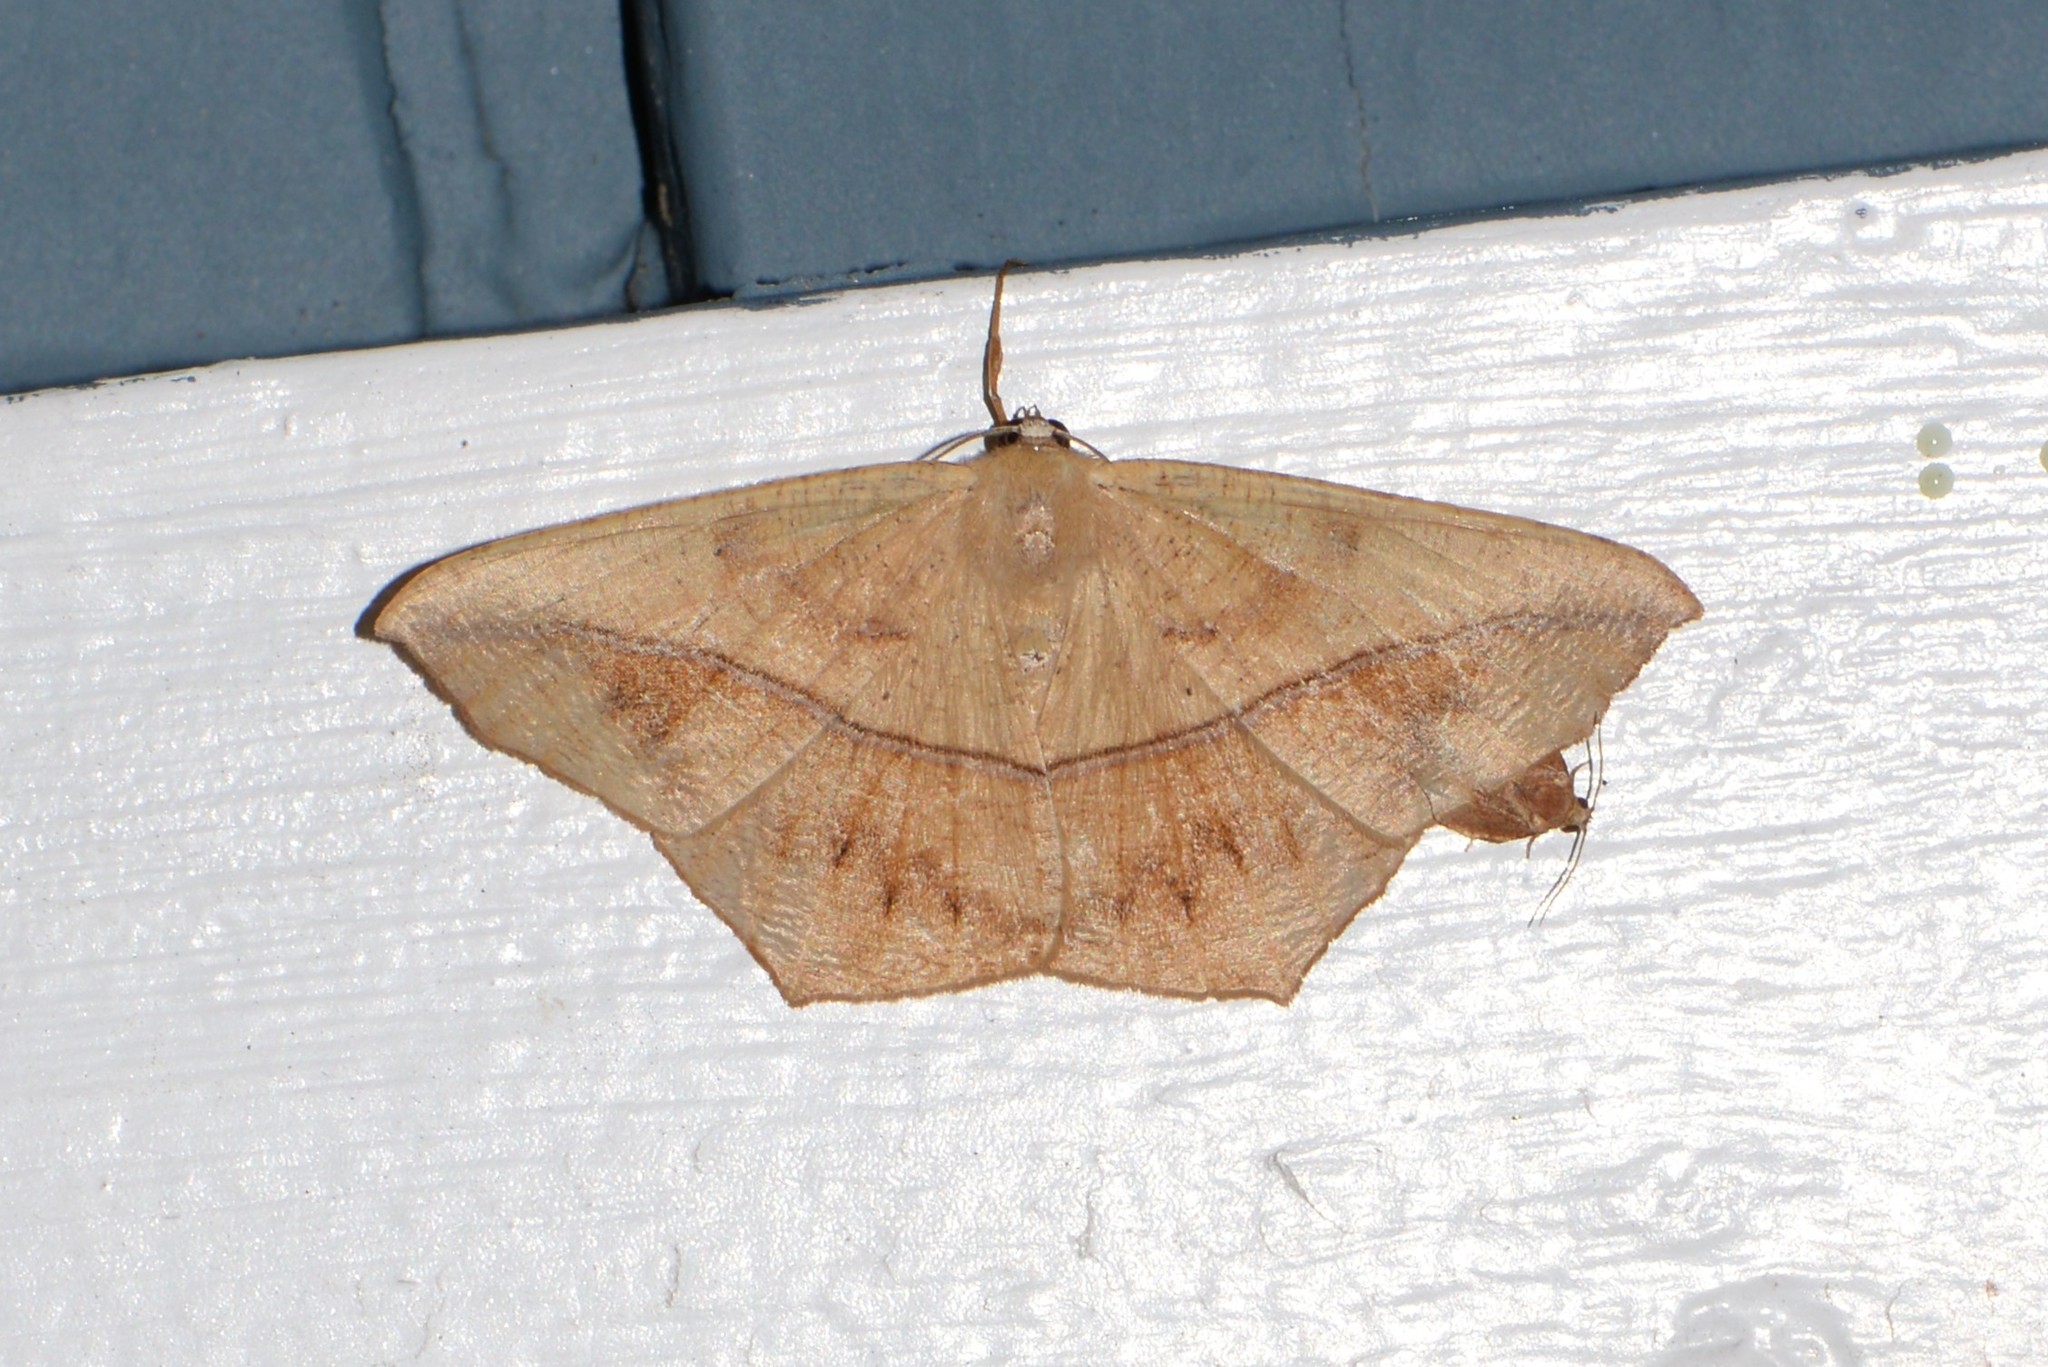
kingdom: Animalia
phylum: Arthropoda
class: Insecta
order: Lepidoptera
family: Geometridae
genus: Prochoerodes
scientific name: Prochoerodes lineola
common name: Large maple spanworm
